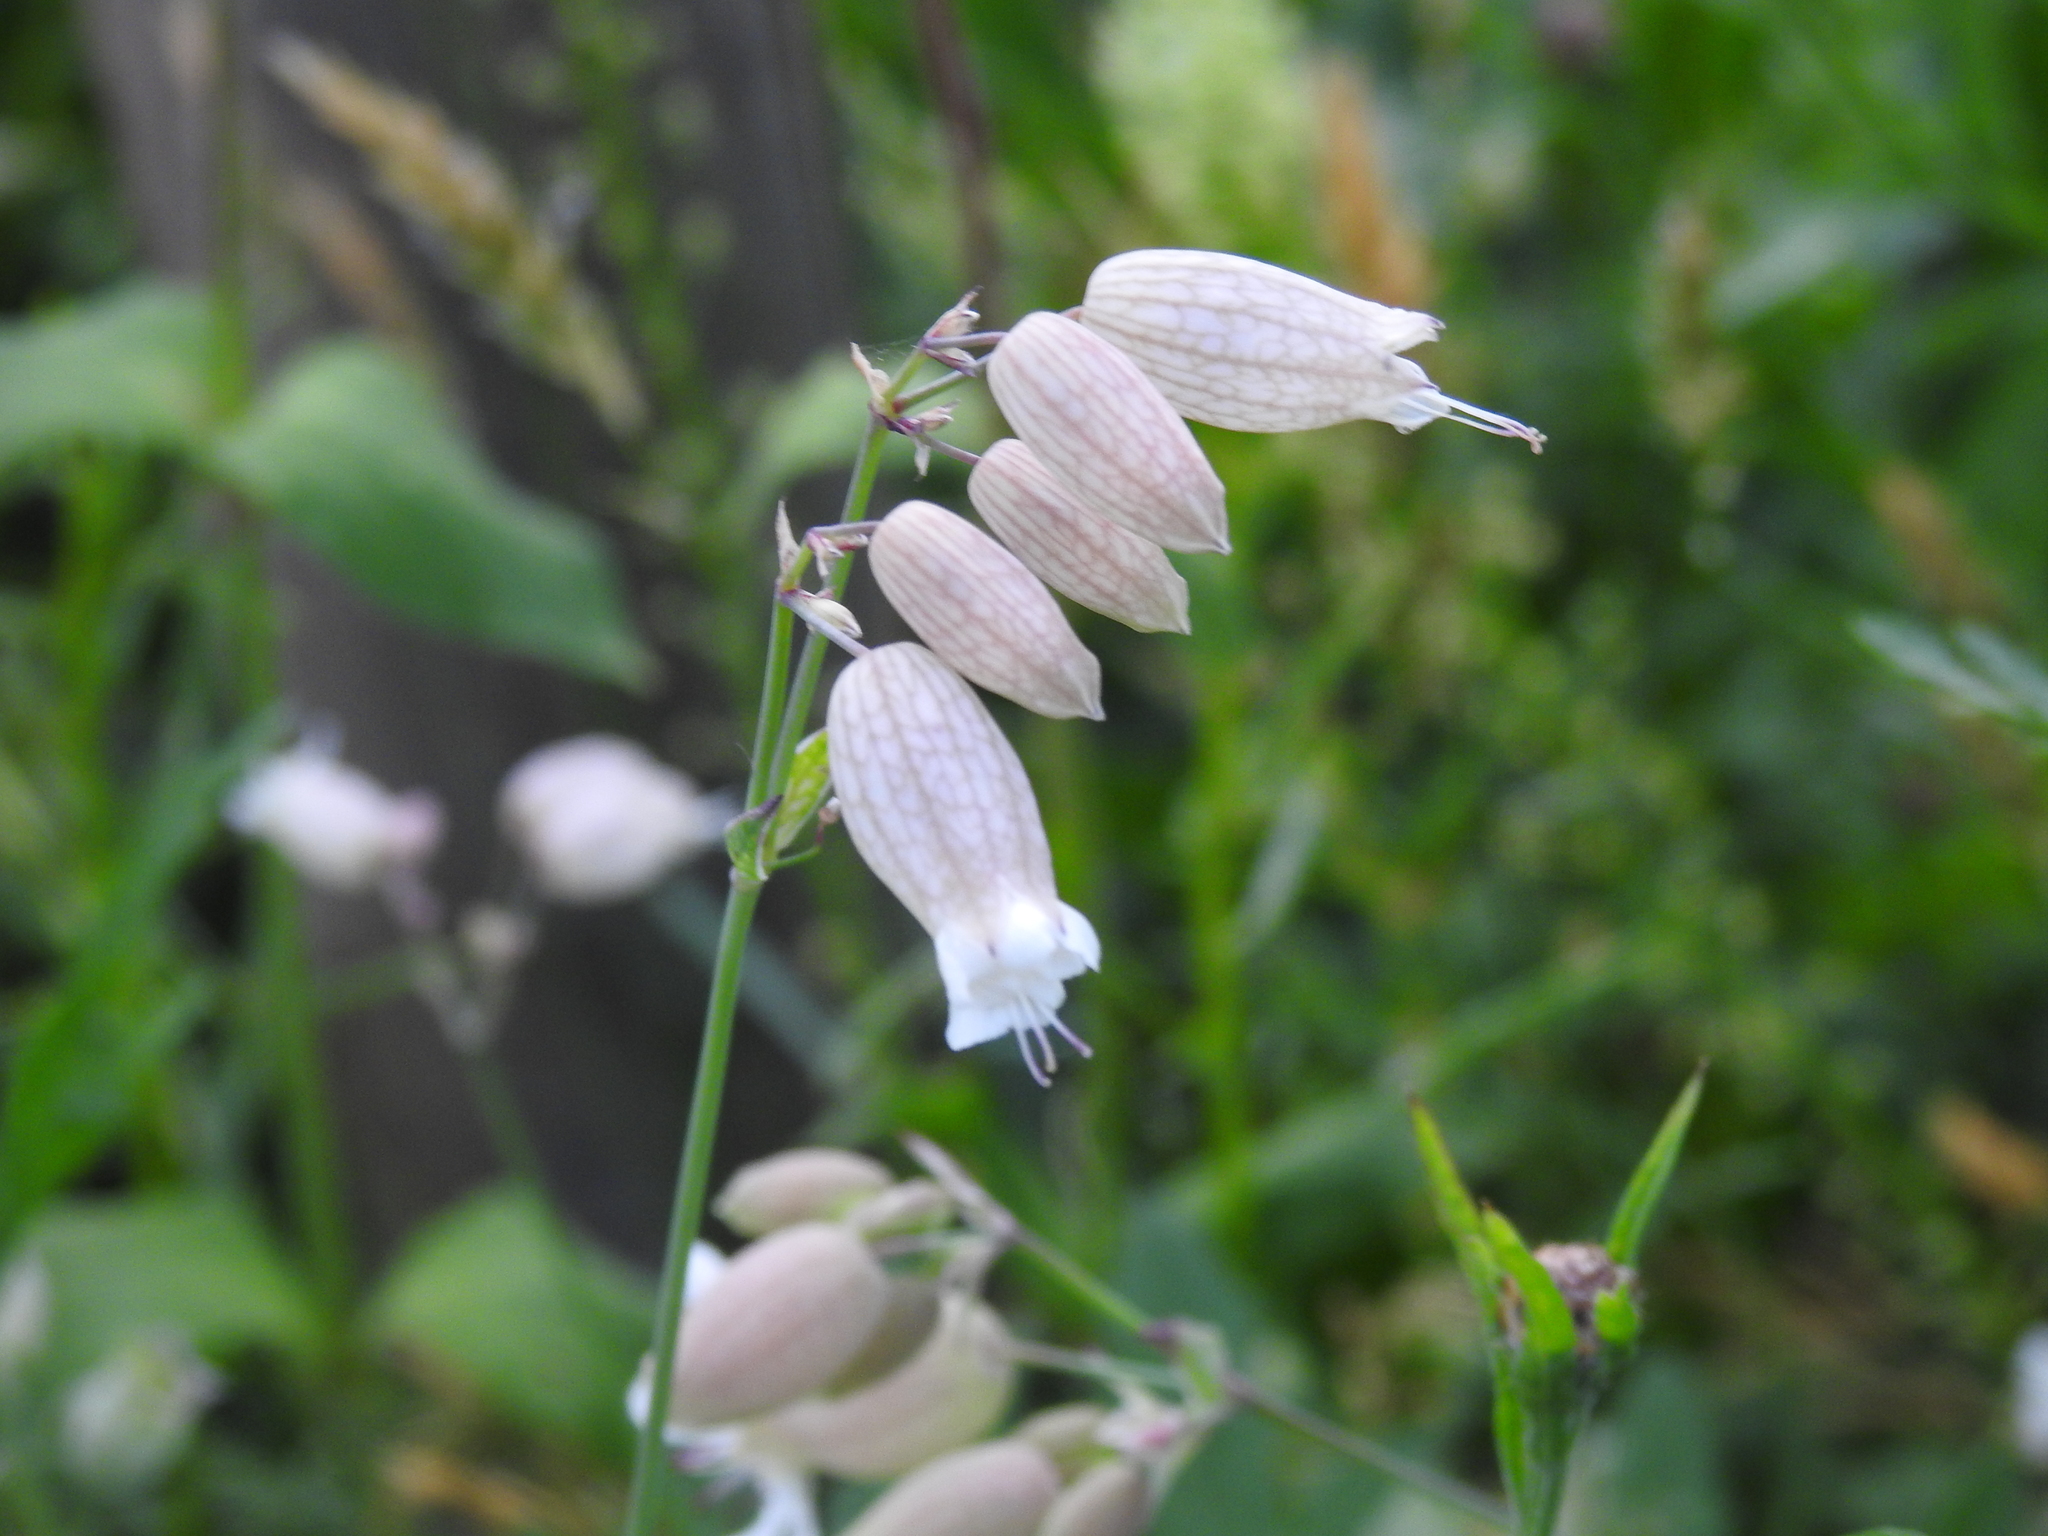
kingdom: Plantae
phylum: Tracheophyta
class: Magnoliopsida
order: Caryophyllales
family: Caryophyllaceae
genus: Silene
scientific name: Silene vulgaris
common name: Bladder campion
